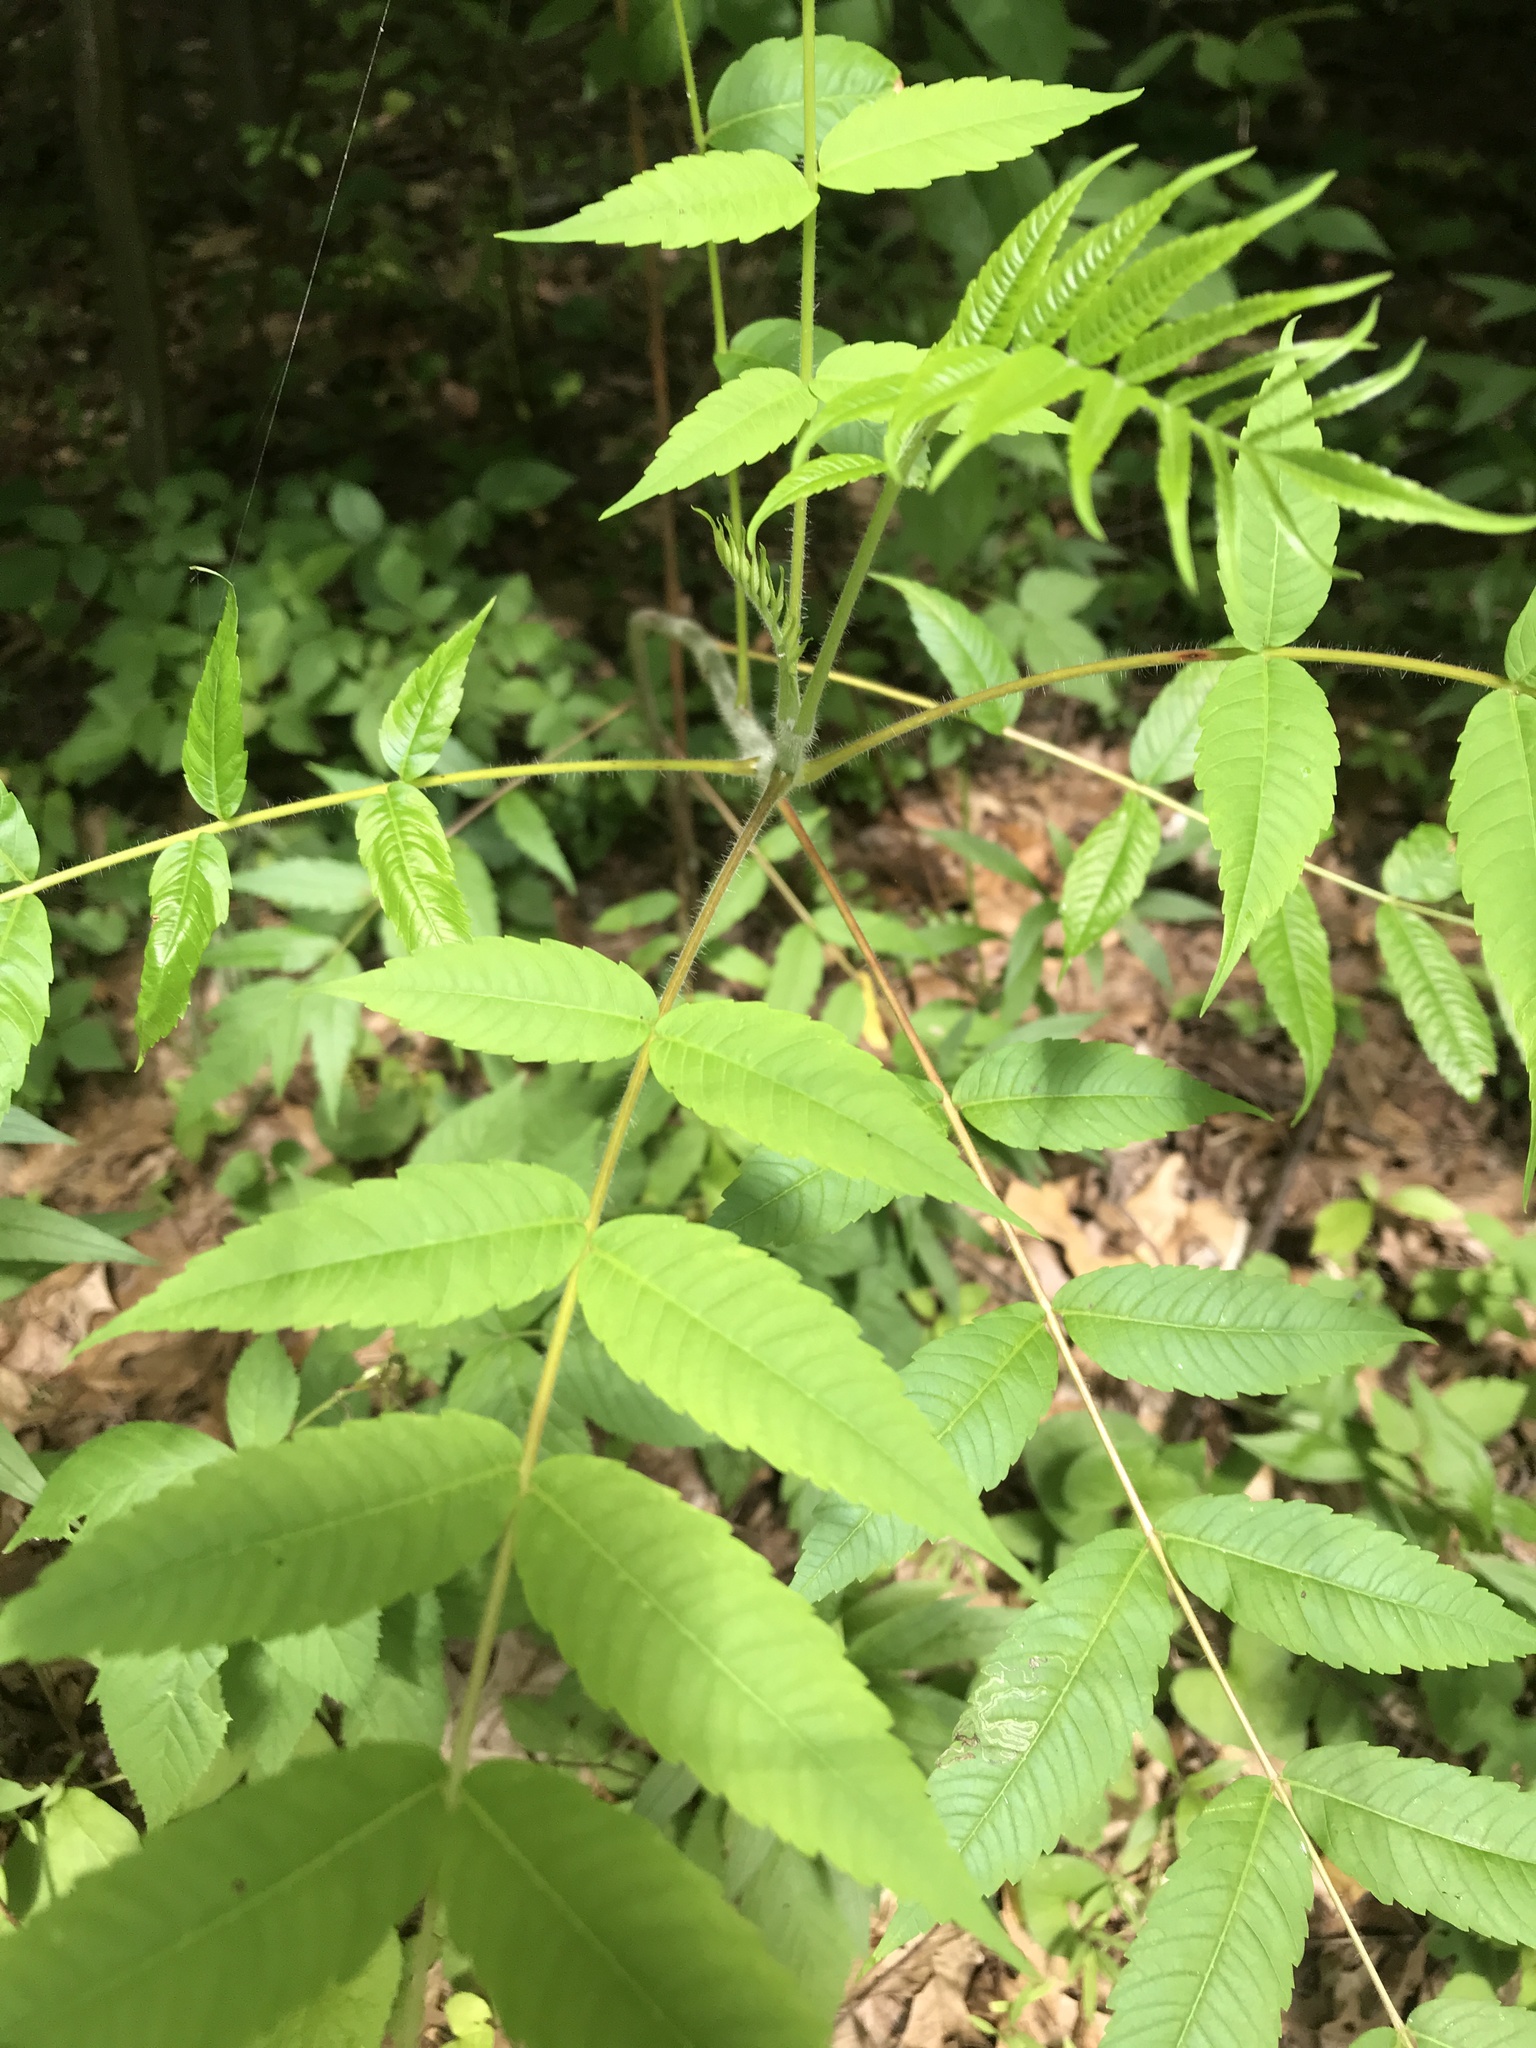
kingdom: Plantae
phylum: Tracheophyta
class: Magnoliopsida
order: Sapindales
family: Anacardiaceae
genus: Rhus
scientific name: Rhus typhina
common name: Staghorn sumac
